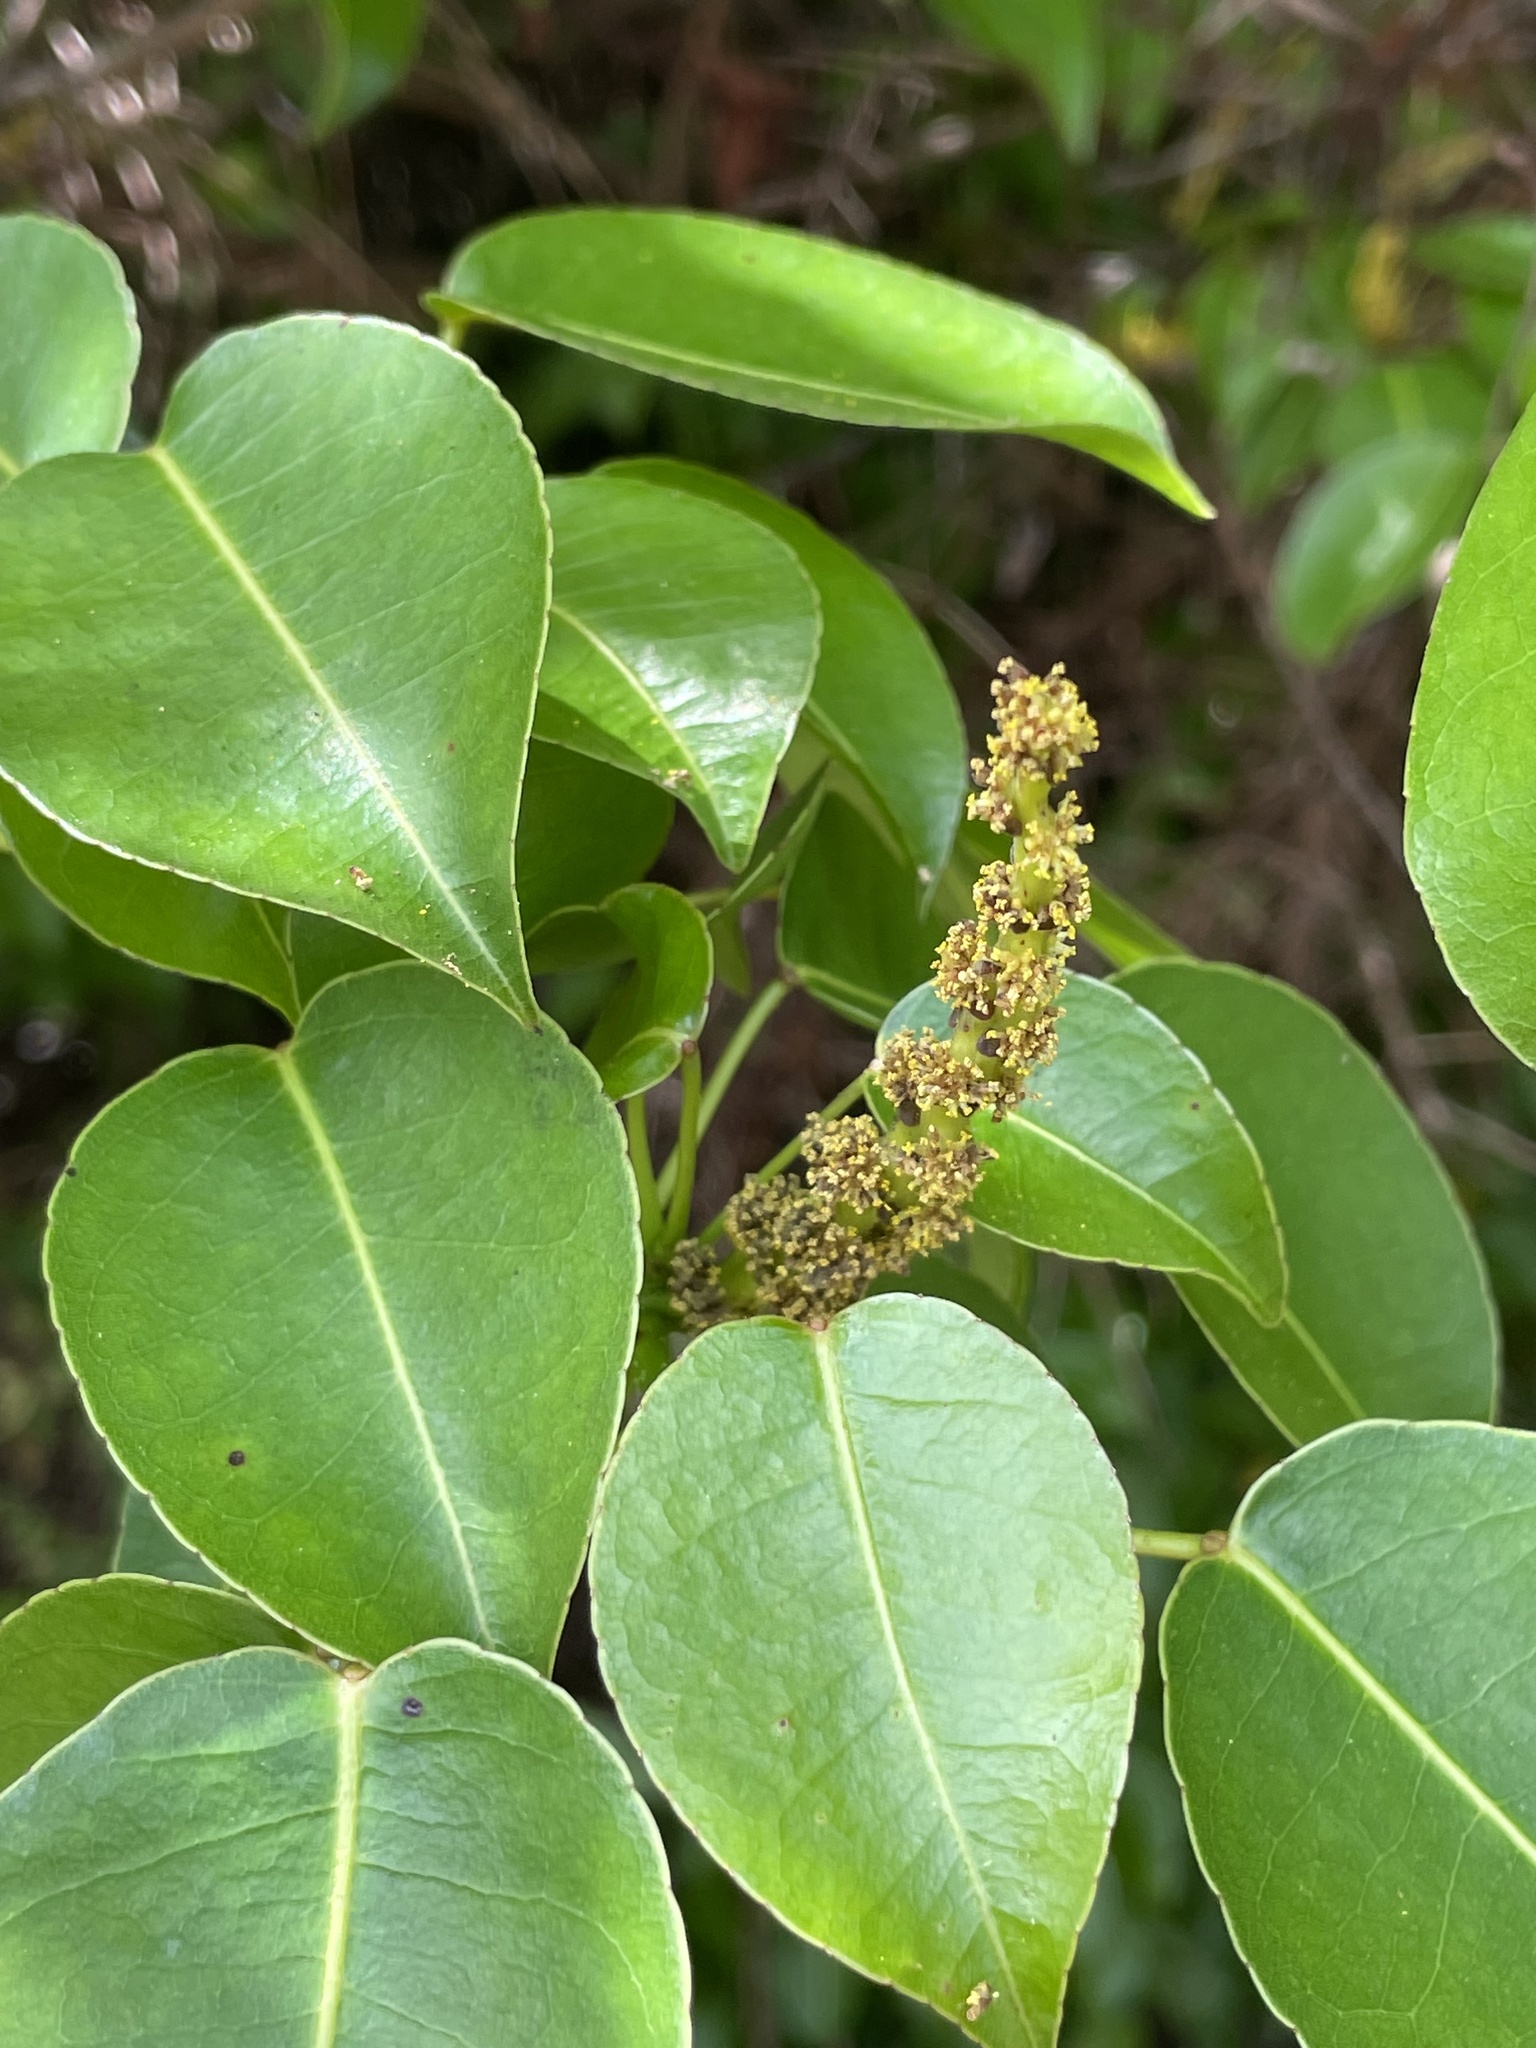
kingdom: Plantae
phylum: Tracheophyta
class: Magnoliopsida
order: Malpighiales
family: Euphorbiaceae
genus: Hippomane
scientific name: Hippomane mancinella
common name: Manchineel
